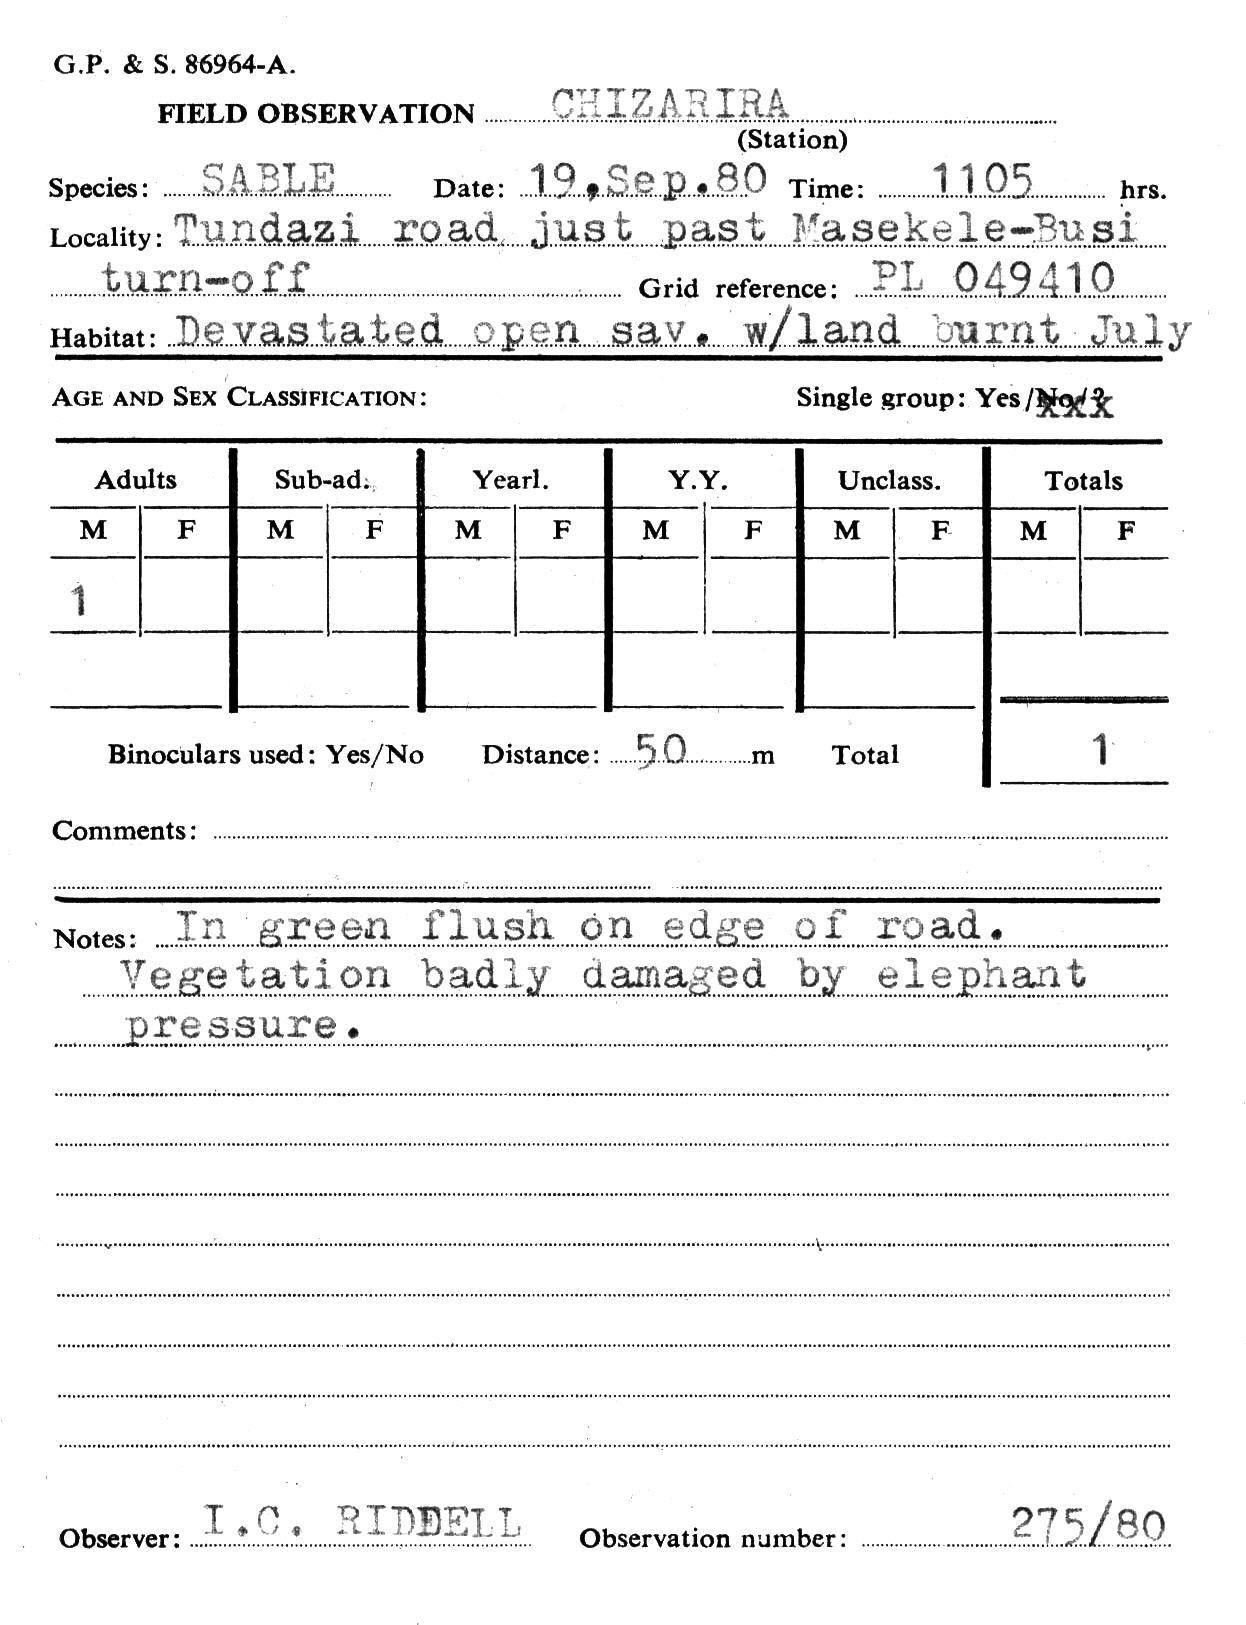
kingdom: Animalia
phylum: Chordata
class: Mammalia
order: Artiodactyla
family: Bovidae
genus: Hippotragus
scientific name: Hippotragus niger
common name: Sable antelope
